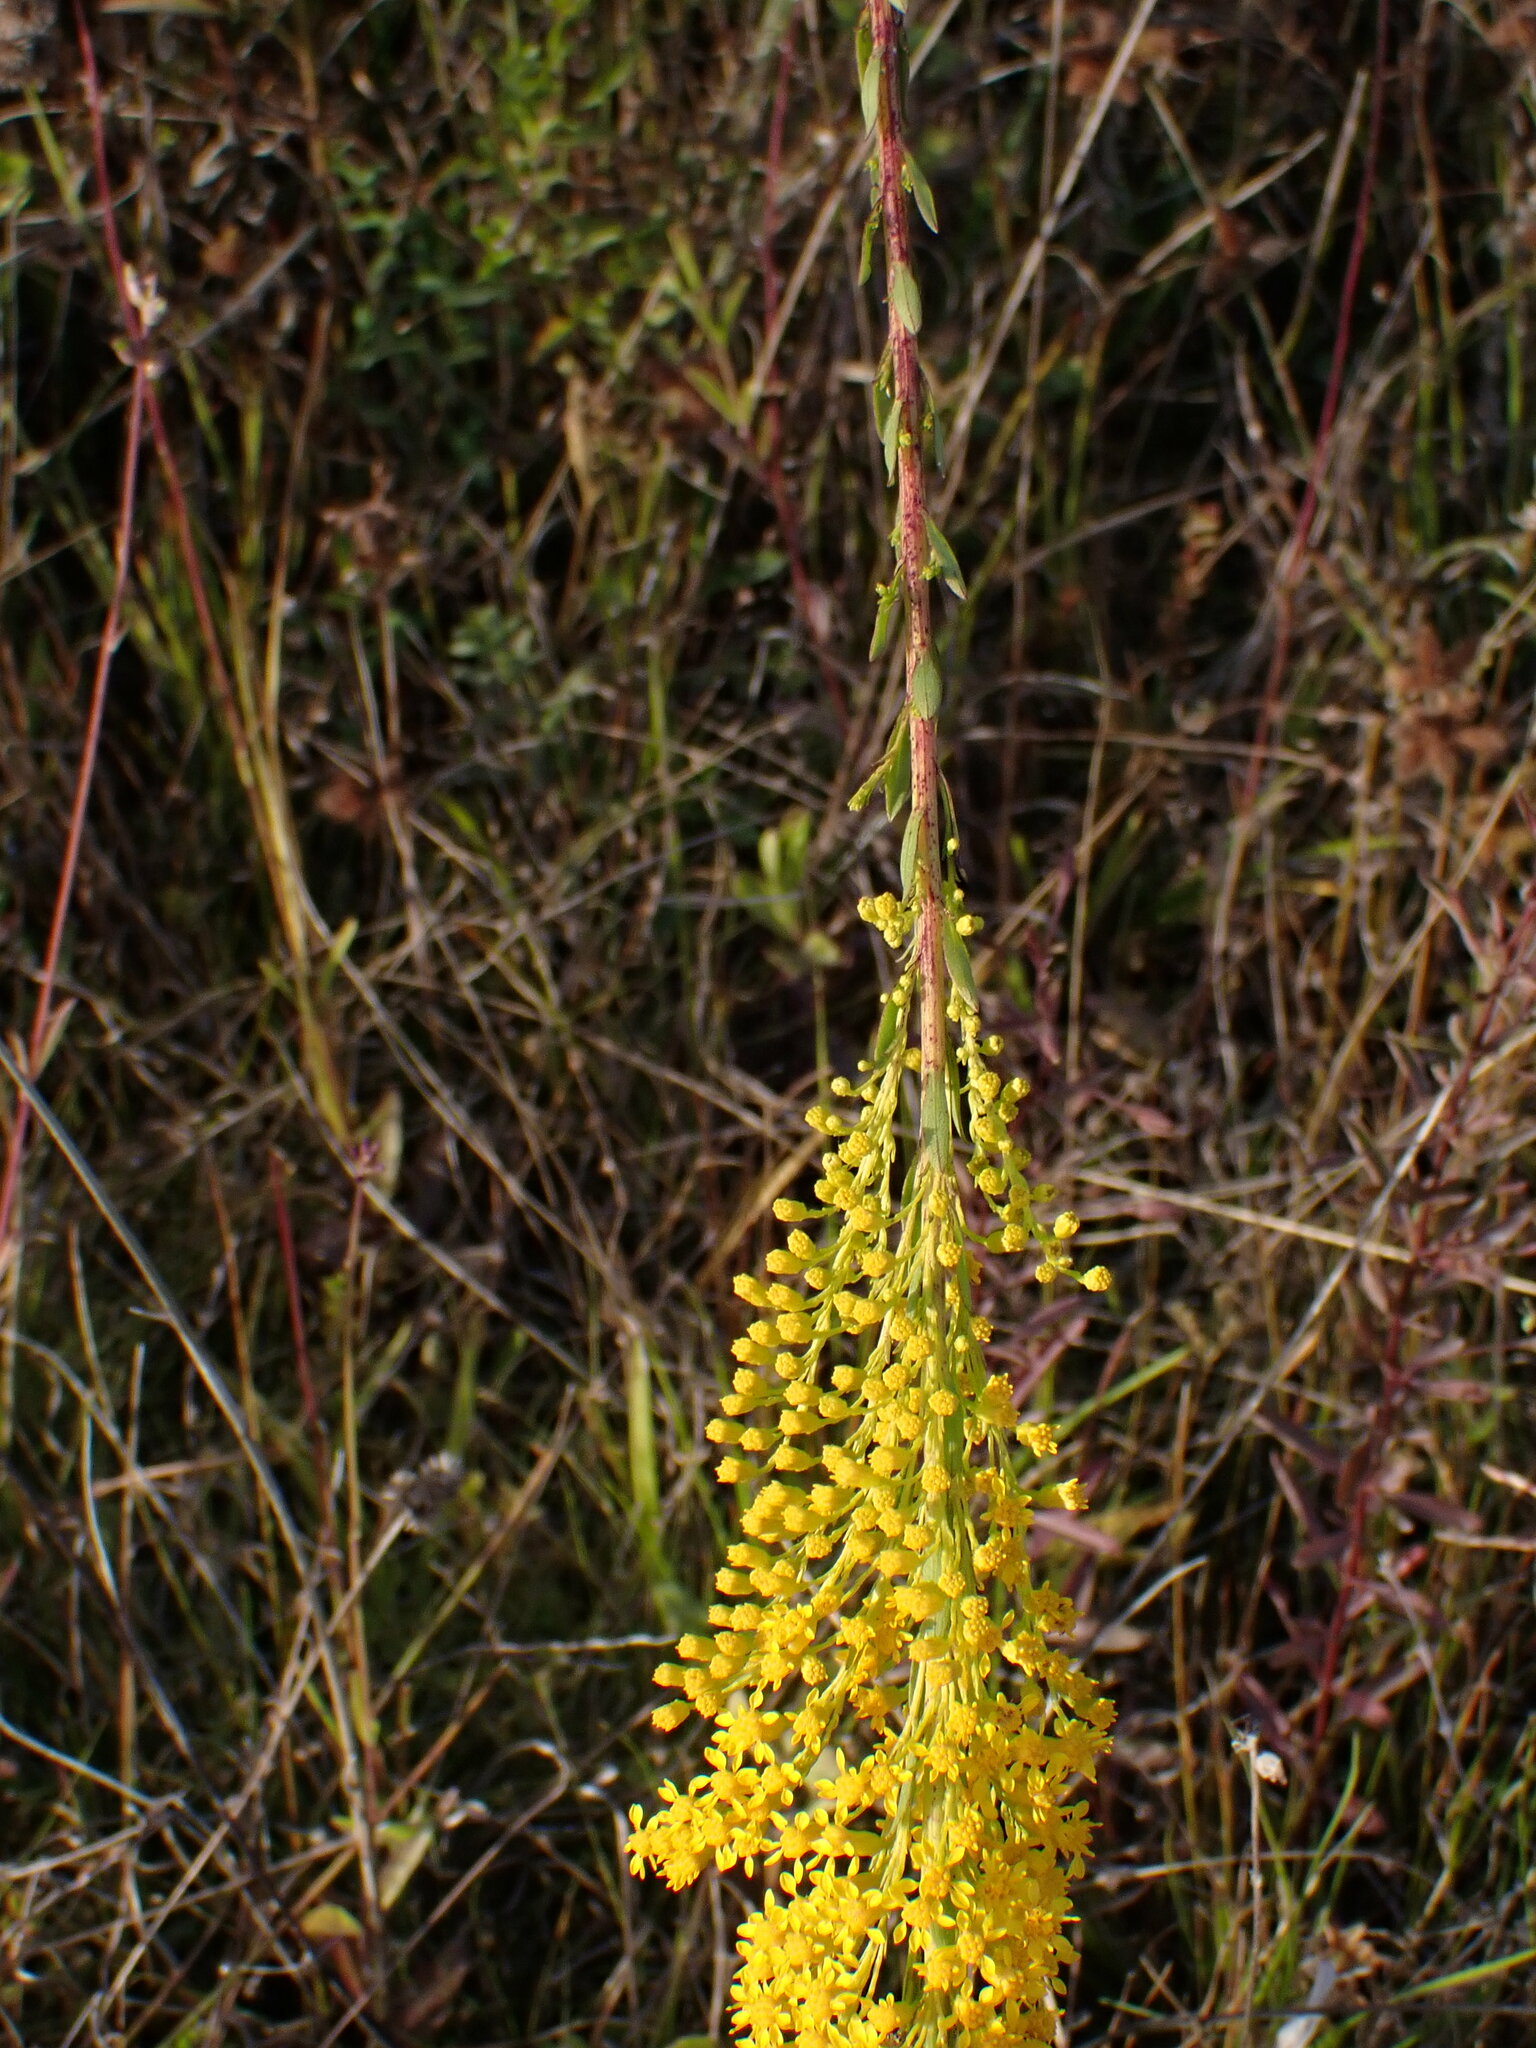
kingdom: Plantae
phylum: Tracheophyta
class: Magnoliopsida
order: Asterales
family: Asteraceae
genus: Solidago
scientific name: Solidago mexicana
